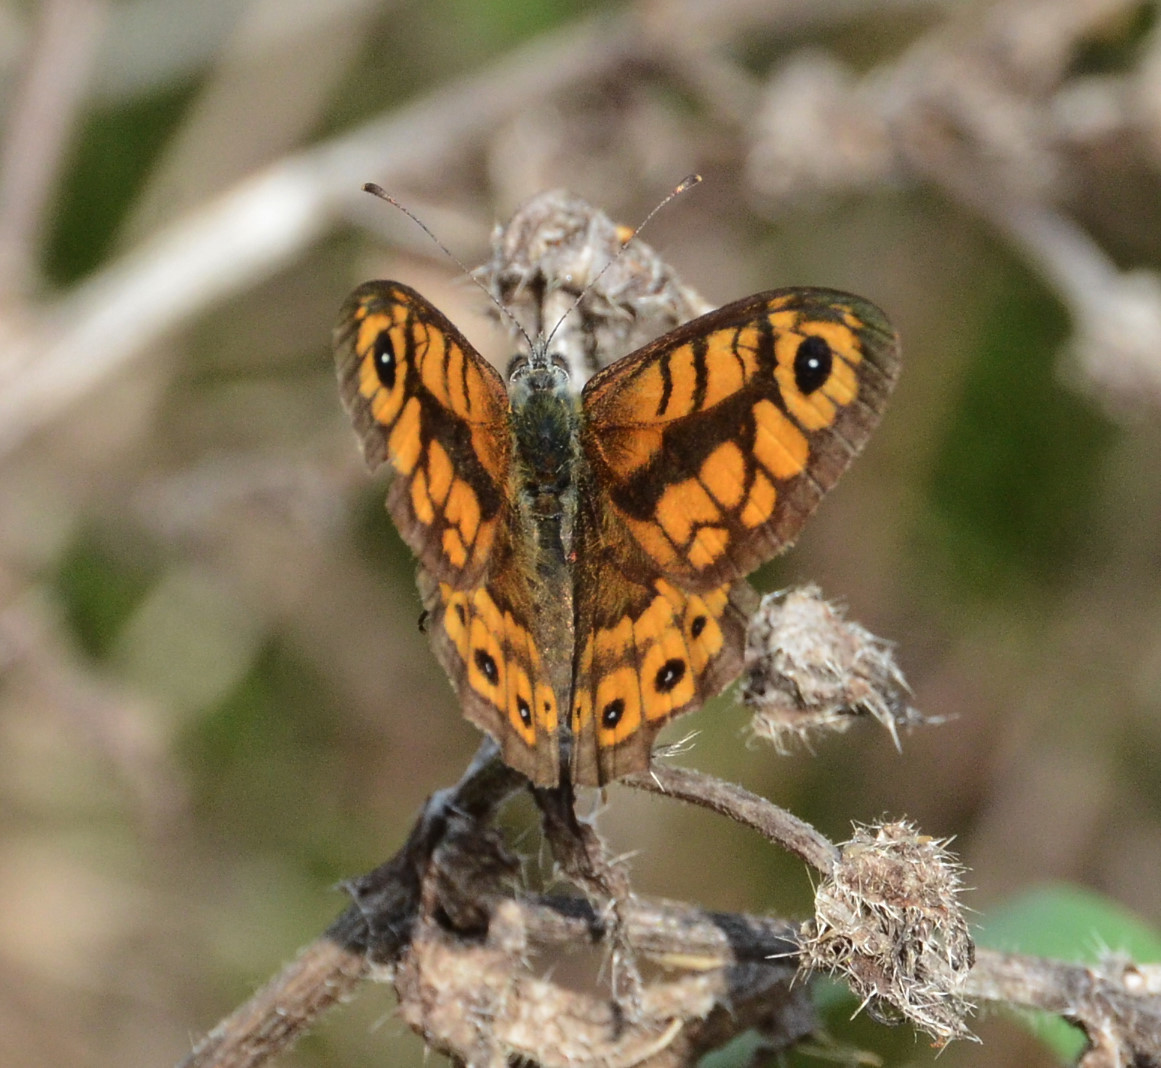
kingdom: Animalia
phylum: Arthropoda
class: Insecta
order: Lepidoptera
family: Nymphalidae
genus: Pararge
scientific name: Pararge Lasiommata megera
